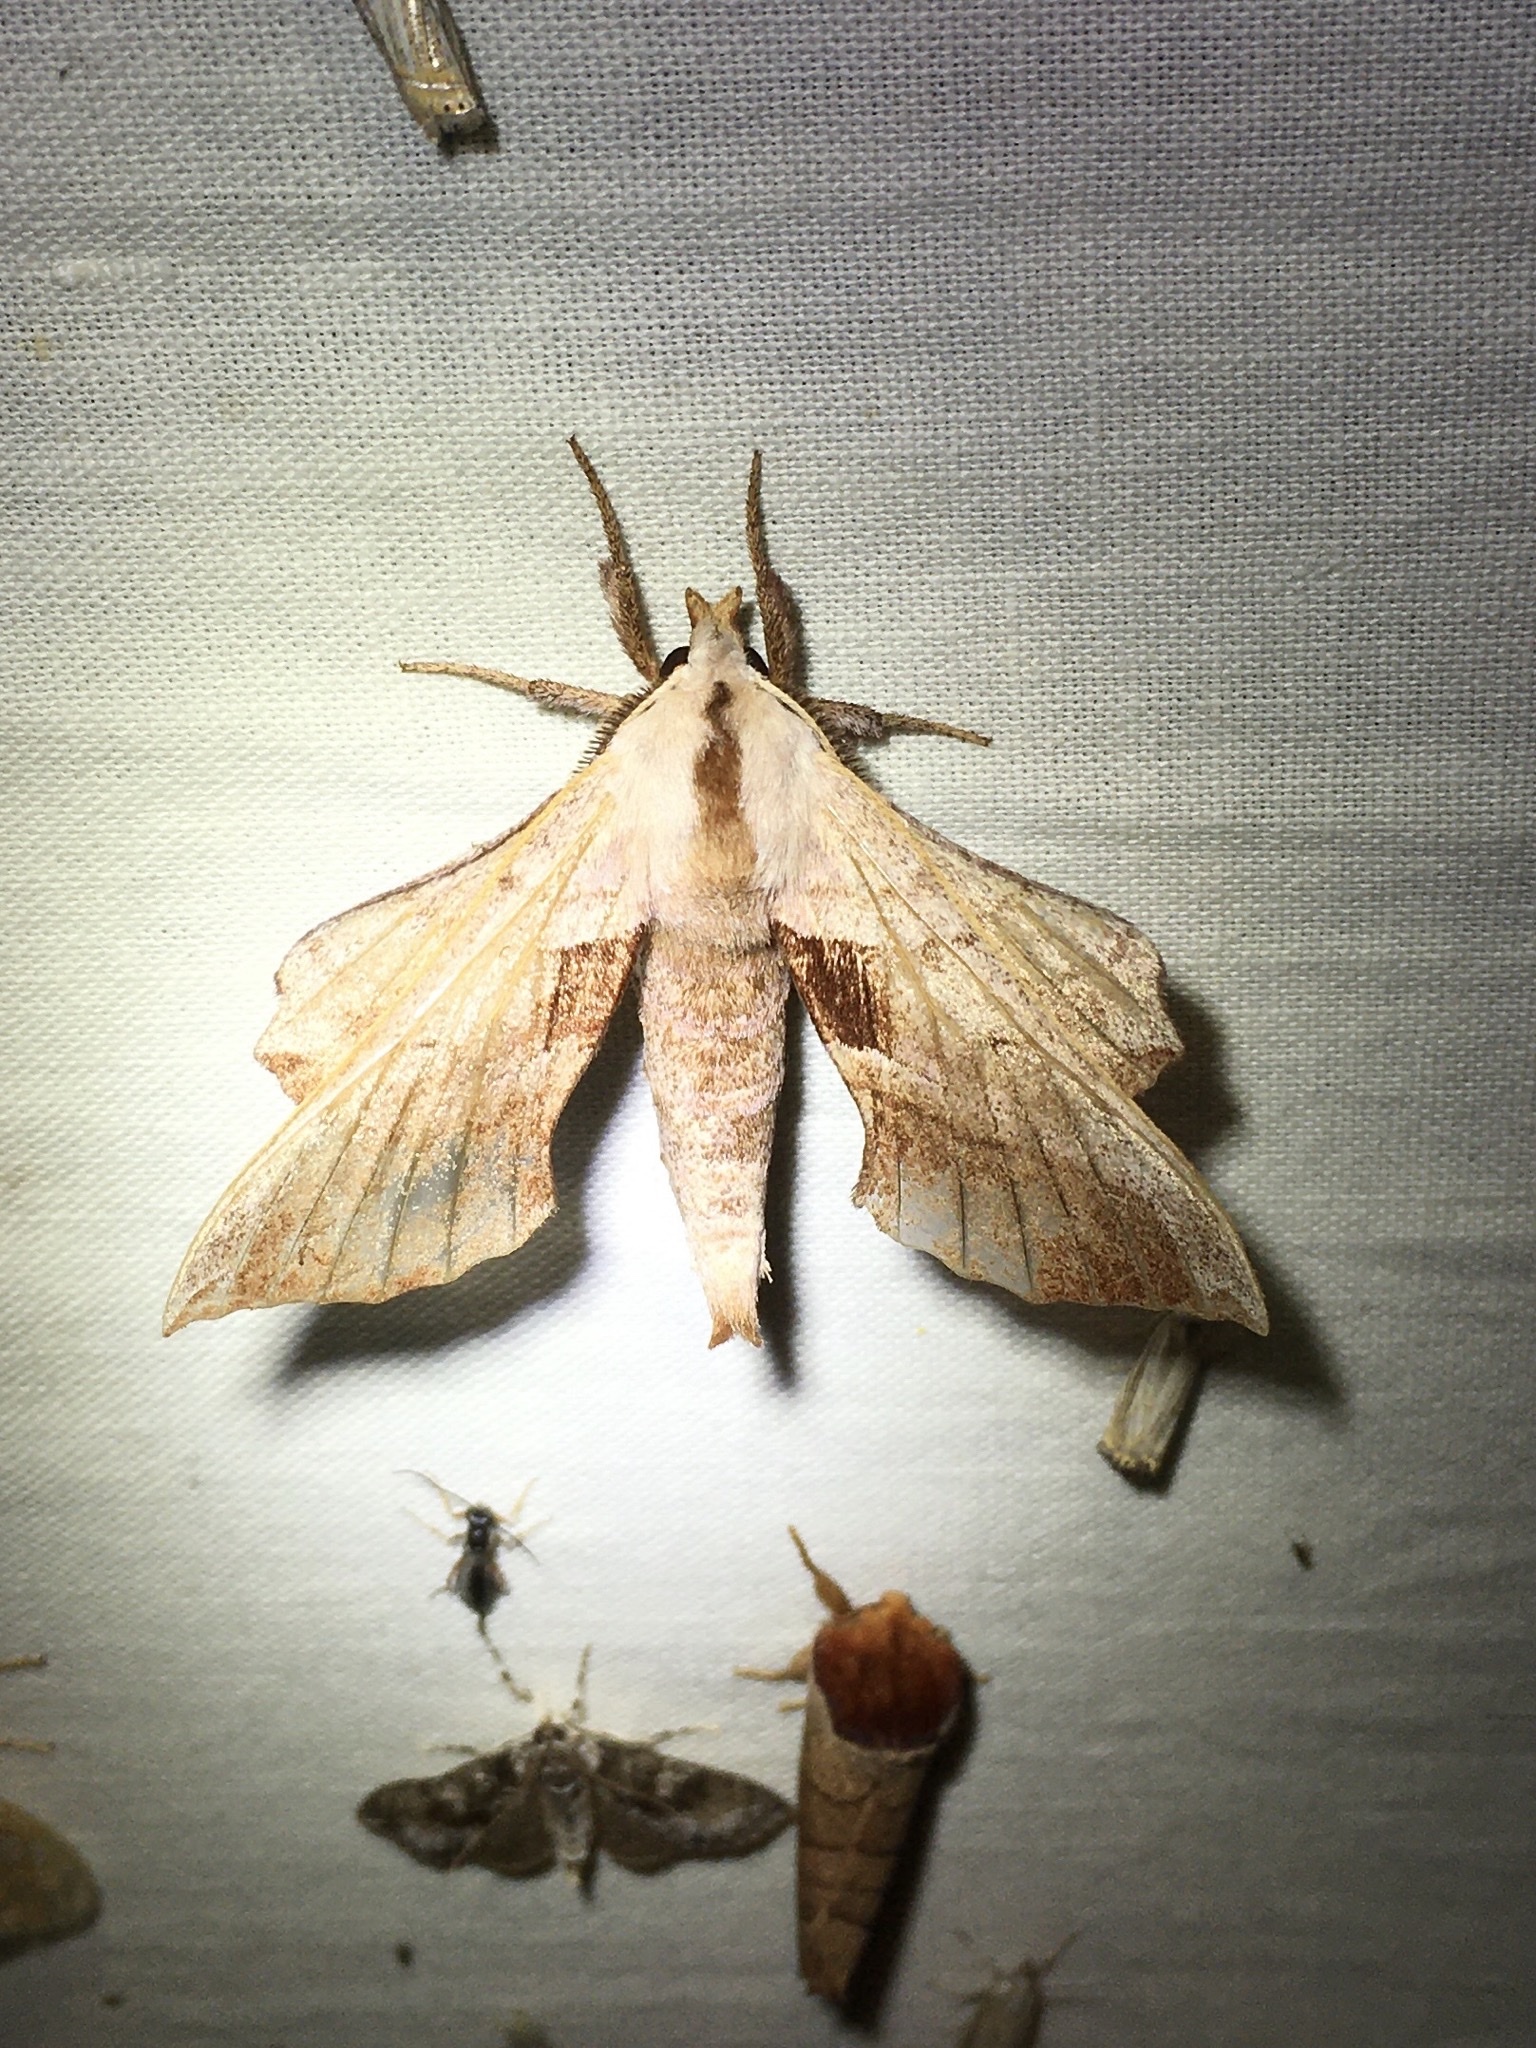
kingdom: Animalia
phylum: Arthropoda
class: Insecta
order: Lepidoptera
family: Sphingidae
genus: Amorpha
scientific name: Amorpha juglandis
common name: Walnut sphinx
